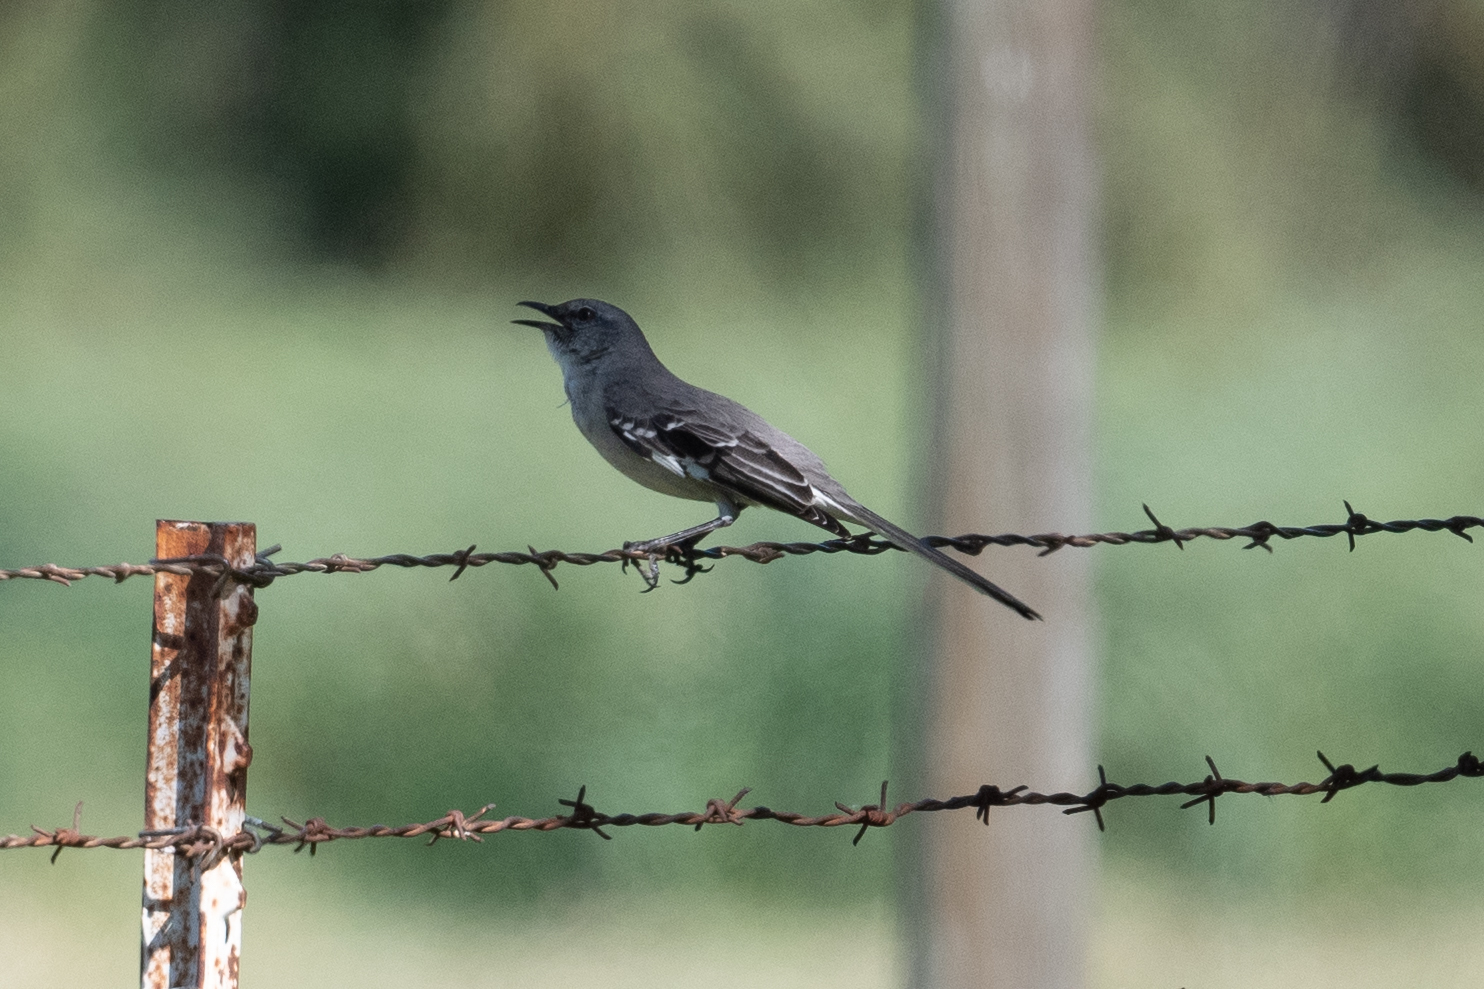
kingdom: Animalia
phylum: Chordata
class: Aves
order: Passeriformes
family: Mimidae
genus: Mimus
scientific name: Mimus polyglottos
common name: Northern mockingbird
